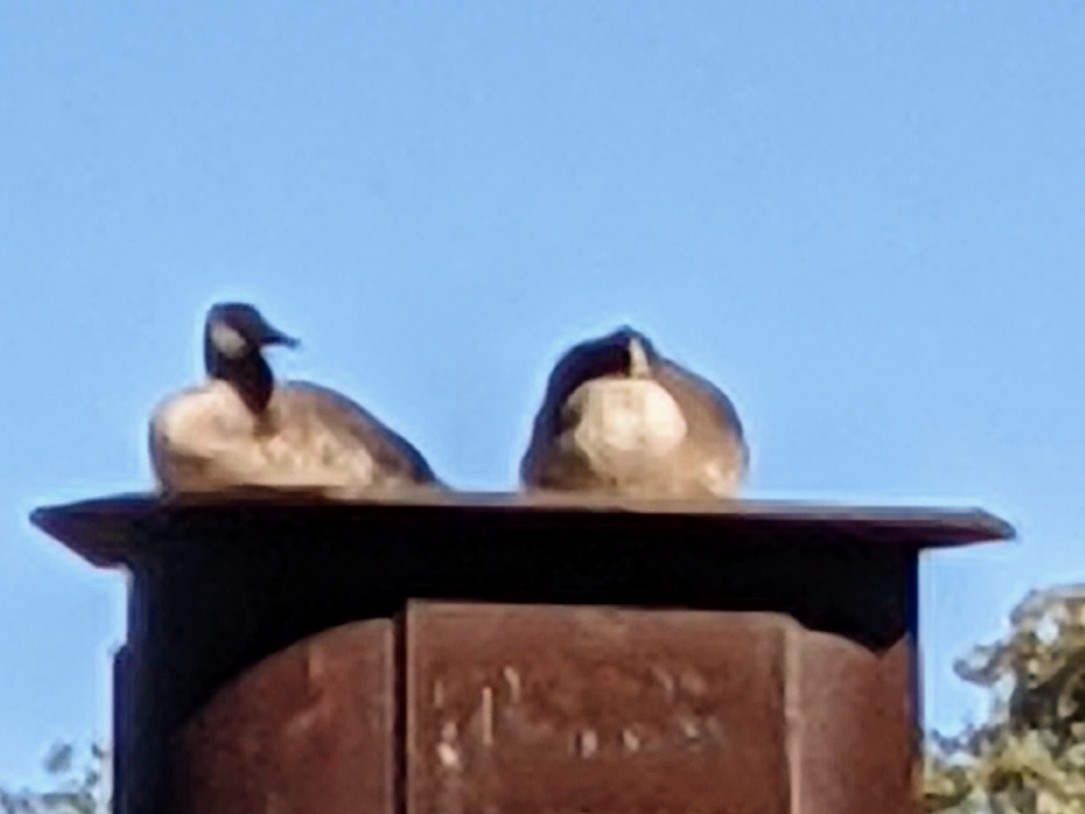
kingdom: Animalia
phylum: Chordata
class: Aves
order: Anseriformes
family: Anatidae
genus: Branta
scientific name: Branta canadensis
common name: Canada goose
